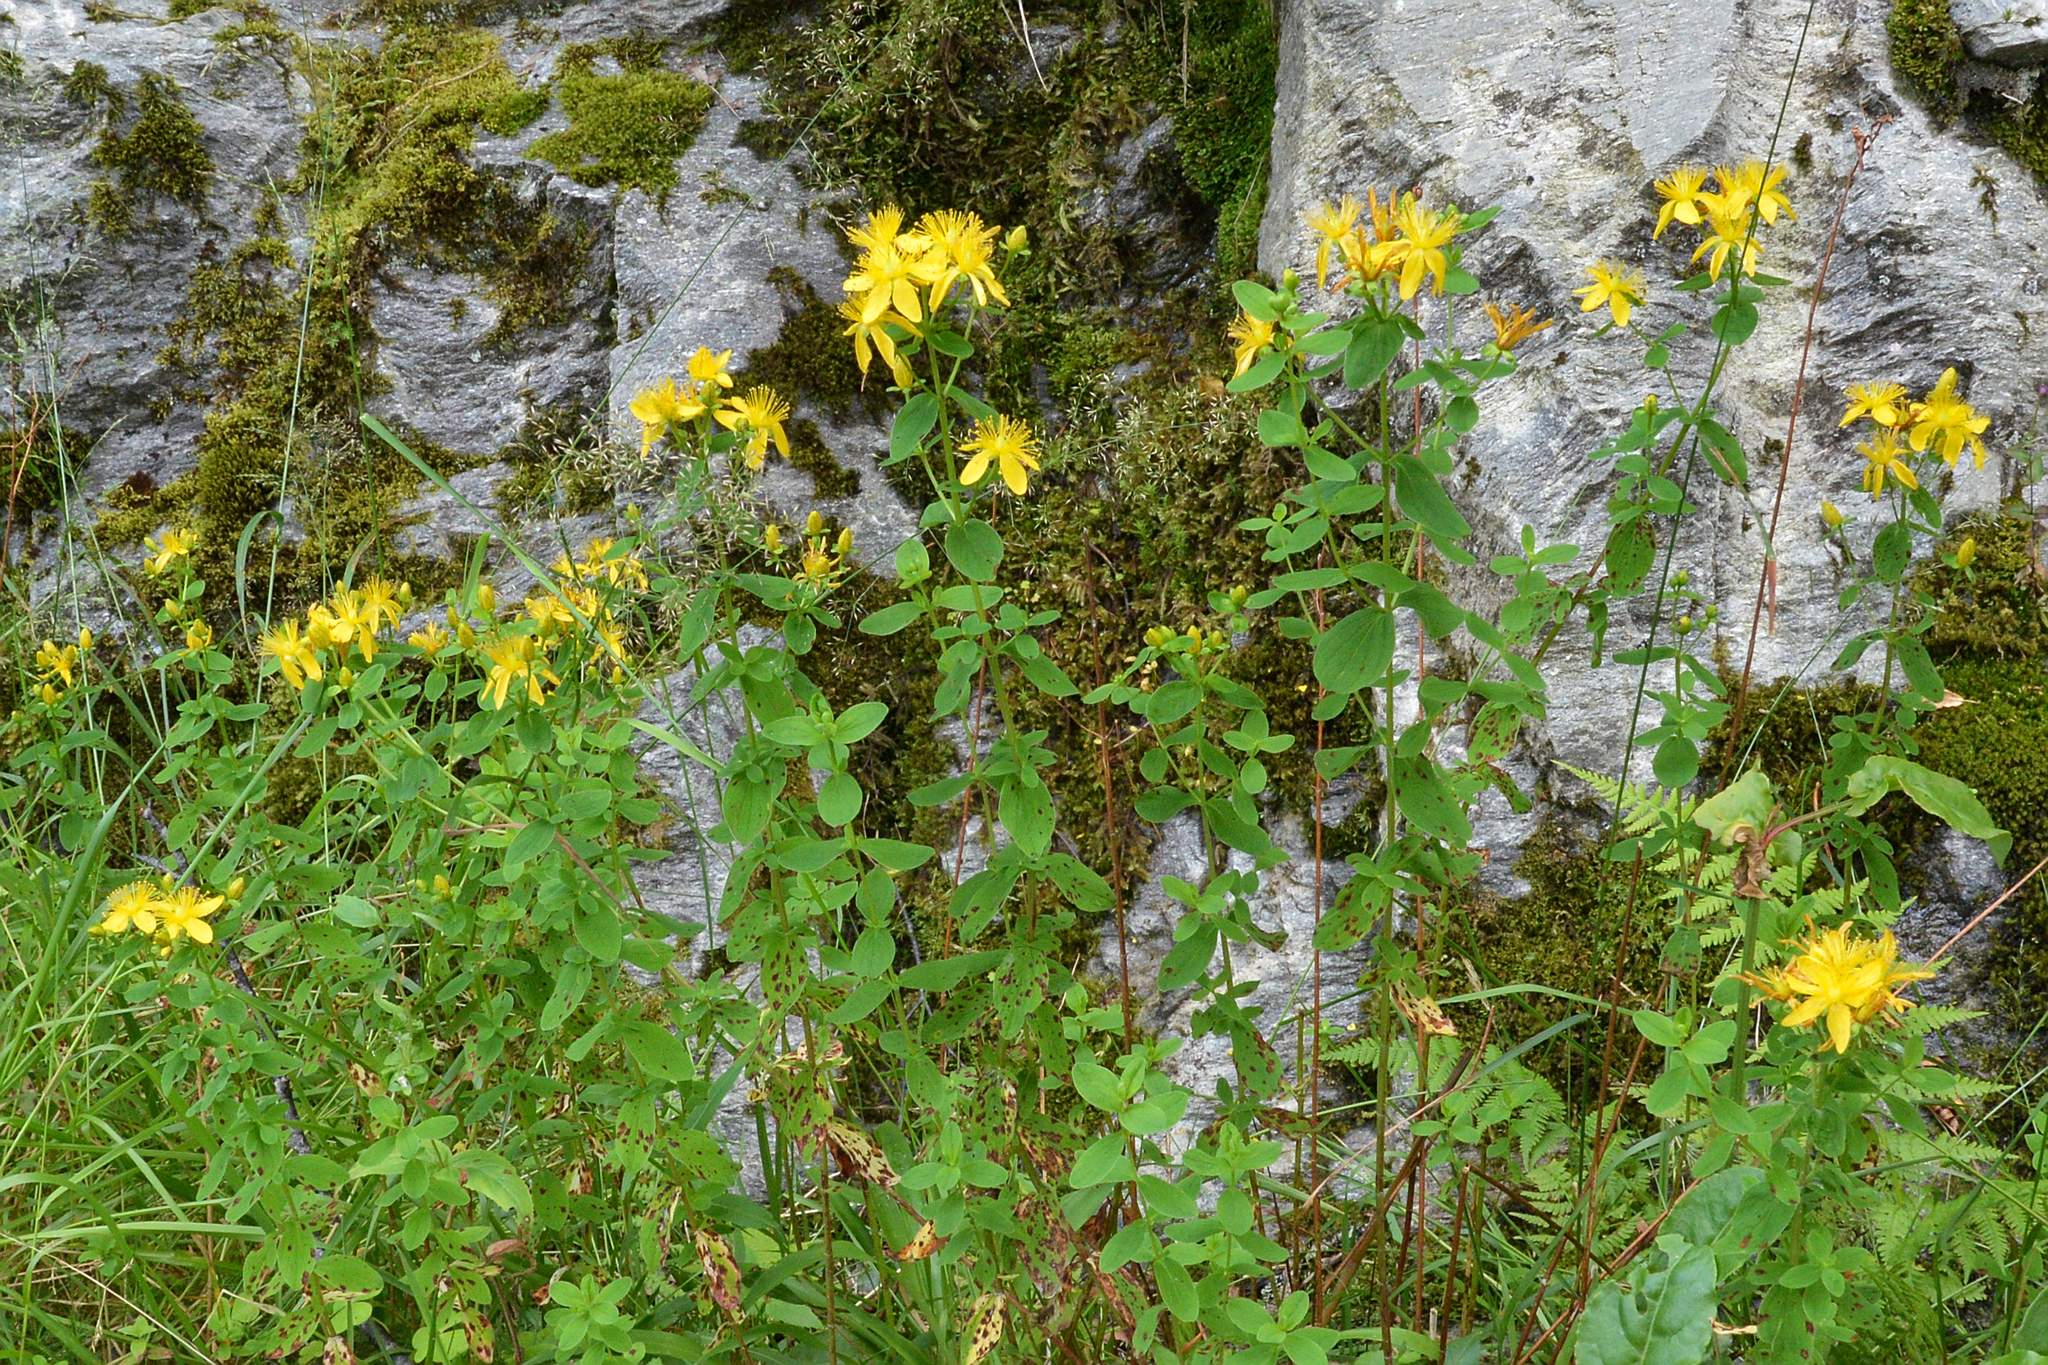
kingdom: Plantae
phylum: Tracheophyta
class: Magnoliopsida
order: Malpighiales
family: Hypericaceae
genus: Hypericum
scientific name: Hypericum maculatum
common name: Imperforate st. john's-wort
